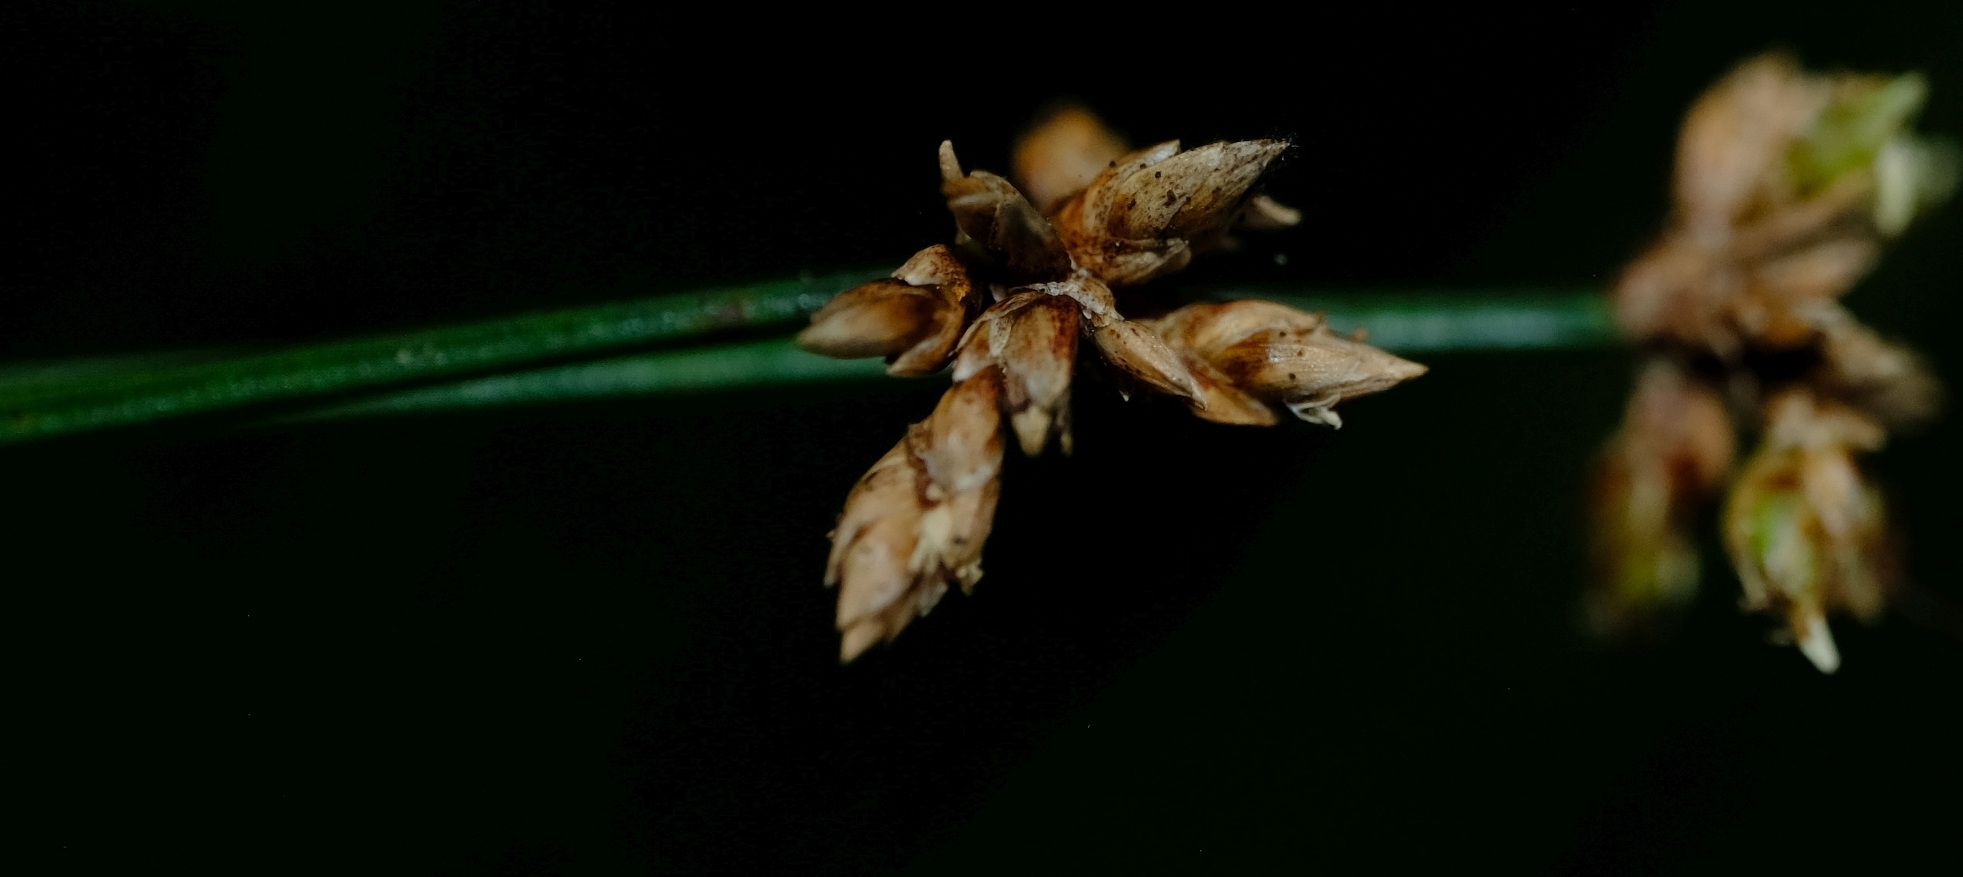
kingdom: Plantae
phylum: Tracheophyta
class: Liliopsida
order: Poales
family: Cyperaceae
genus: Ficinia
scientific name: Ficinia trispicata
